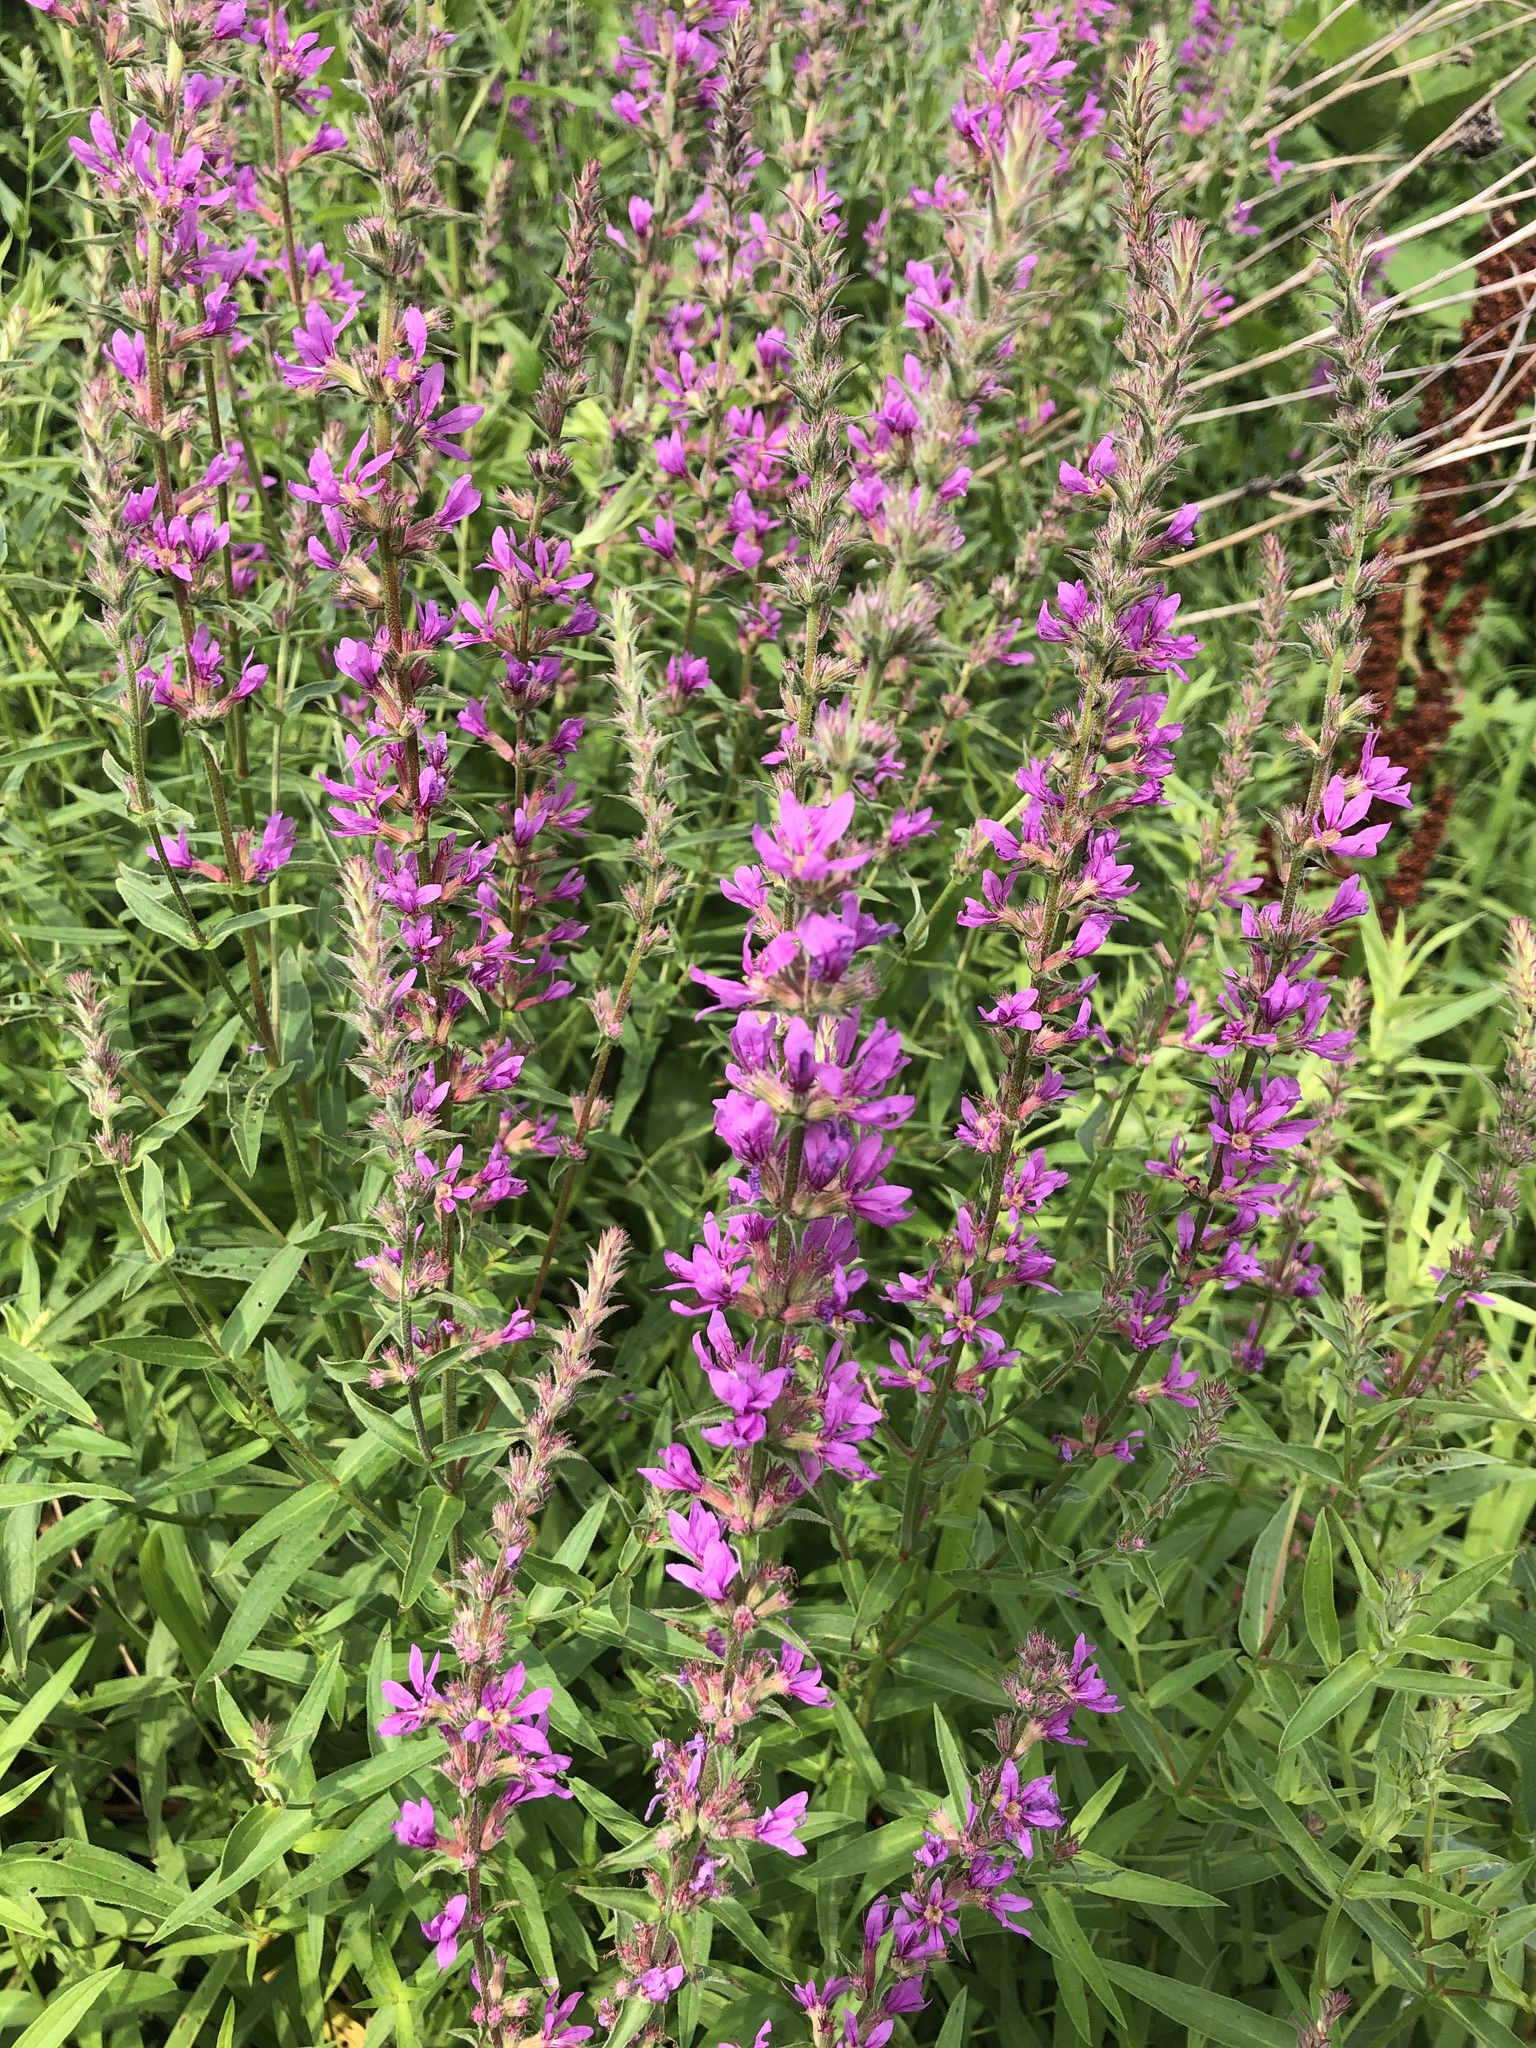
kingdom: Plantae
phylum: Tracheophyta
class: Magnoliopsida
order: Myrtales
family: Lythraceae
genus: Lythrum
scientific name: Lythrum salicaria
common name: Purple loosestrife
